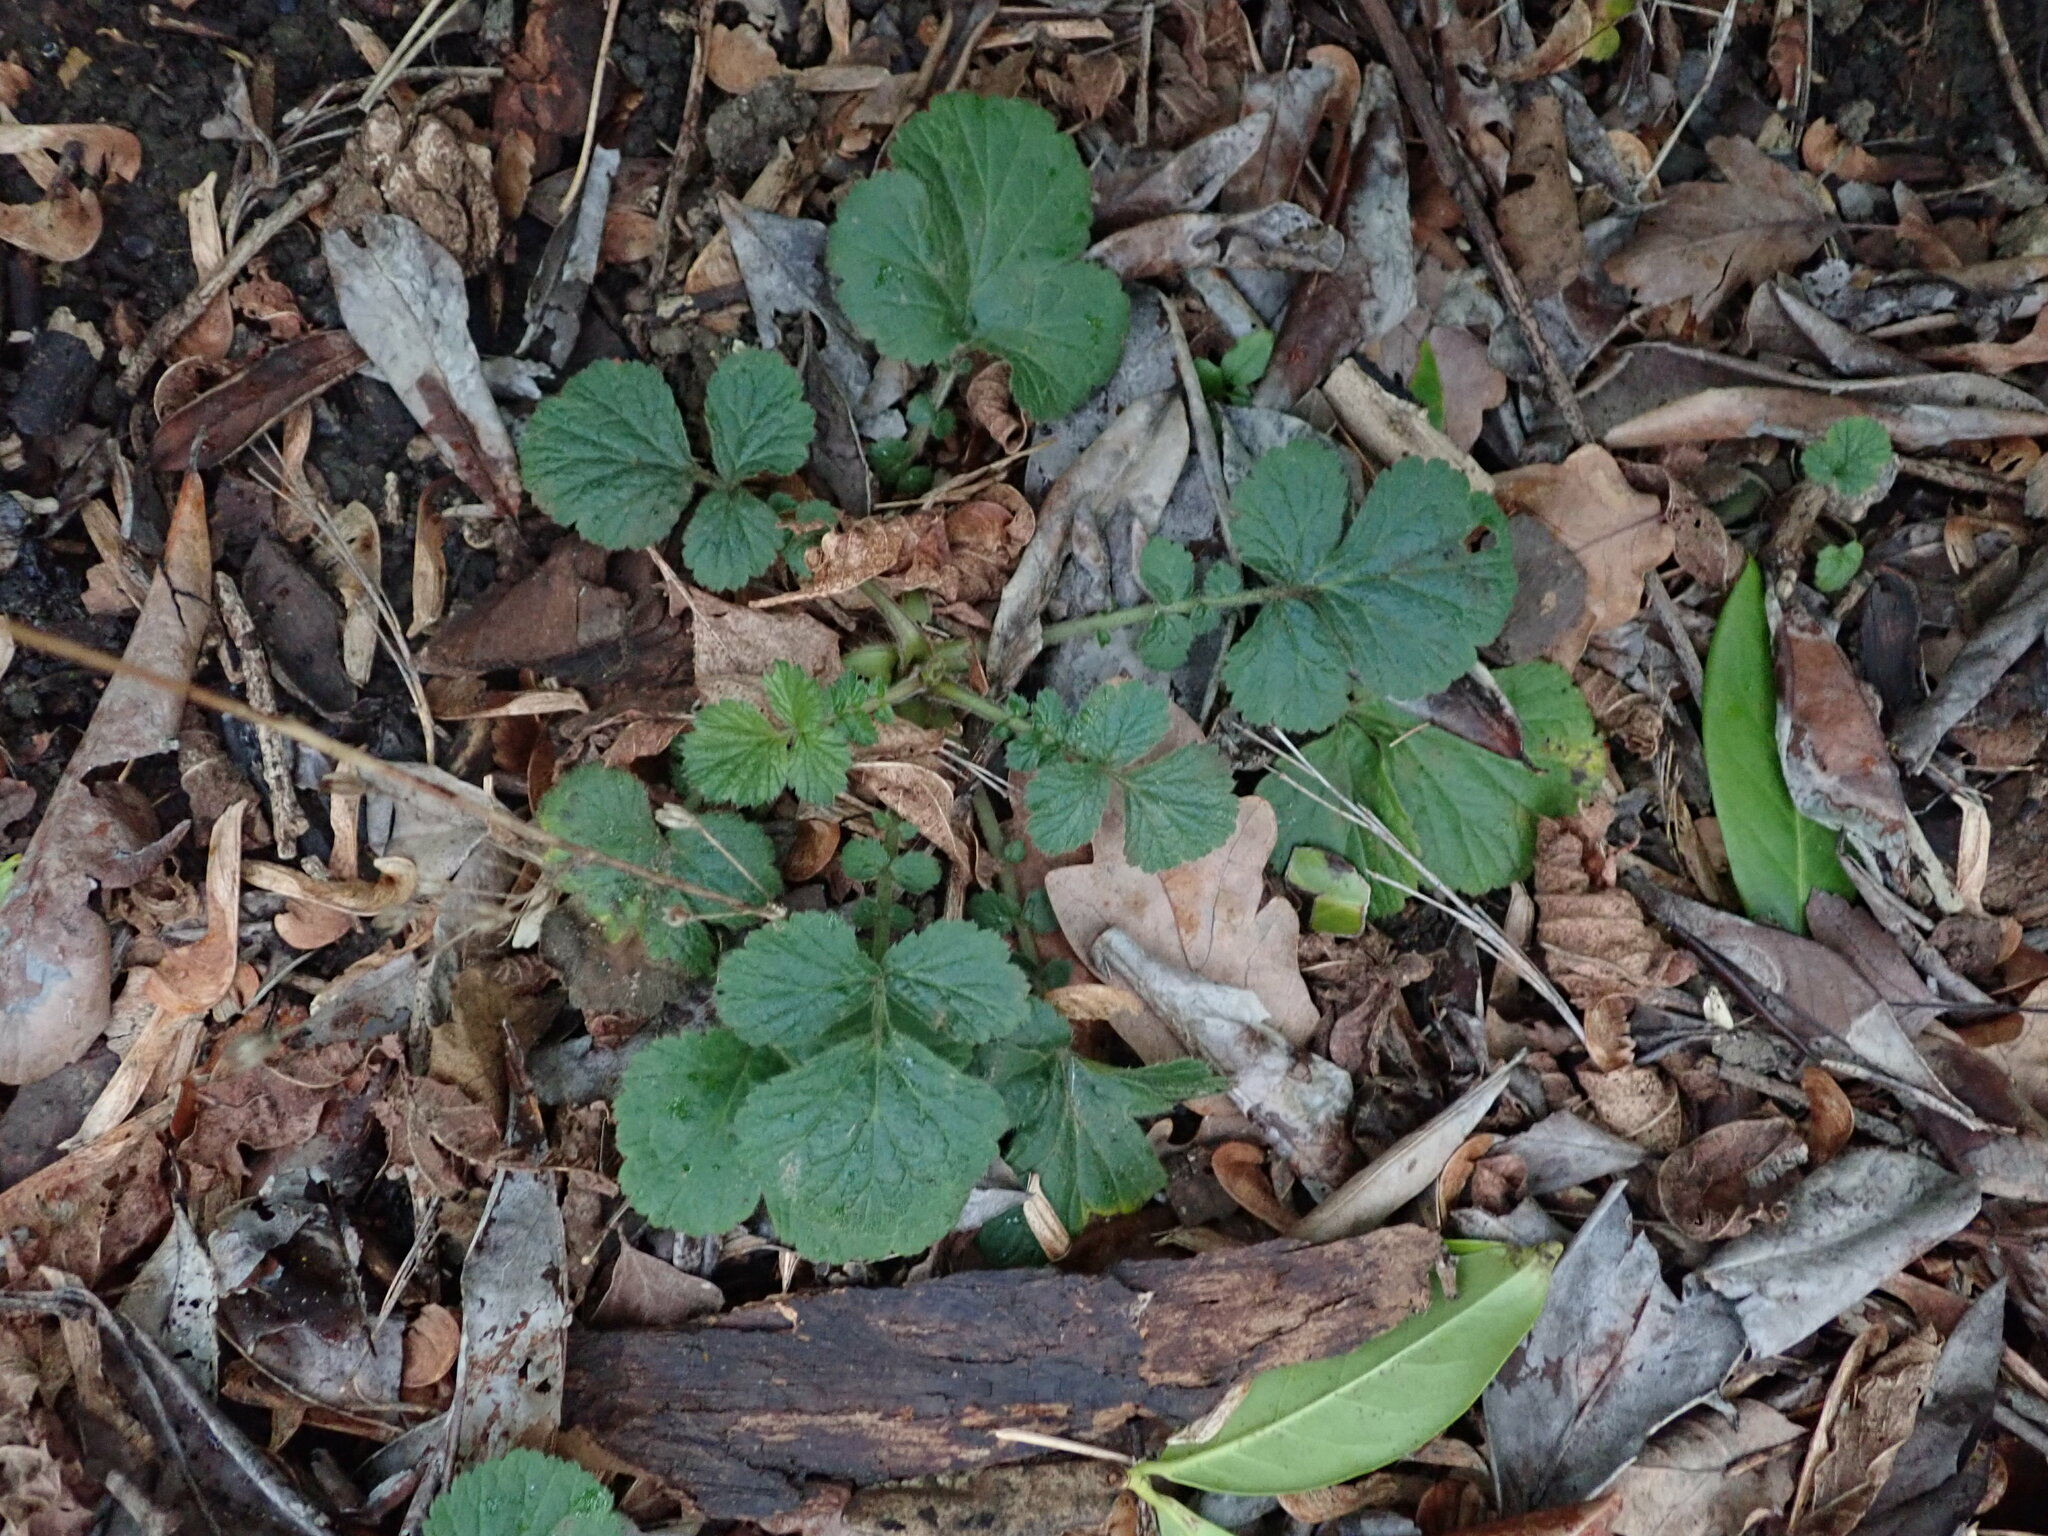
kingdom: Plantae
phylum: Tracheophyta
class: Magnoliopsida
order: Rosales
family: Rosaceae
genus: Geum
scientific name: Geum urbanum
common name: Wood avens
